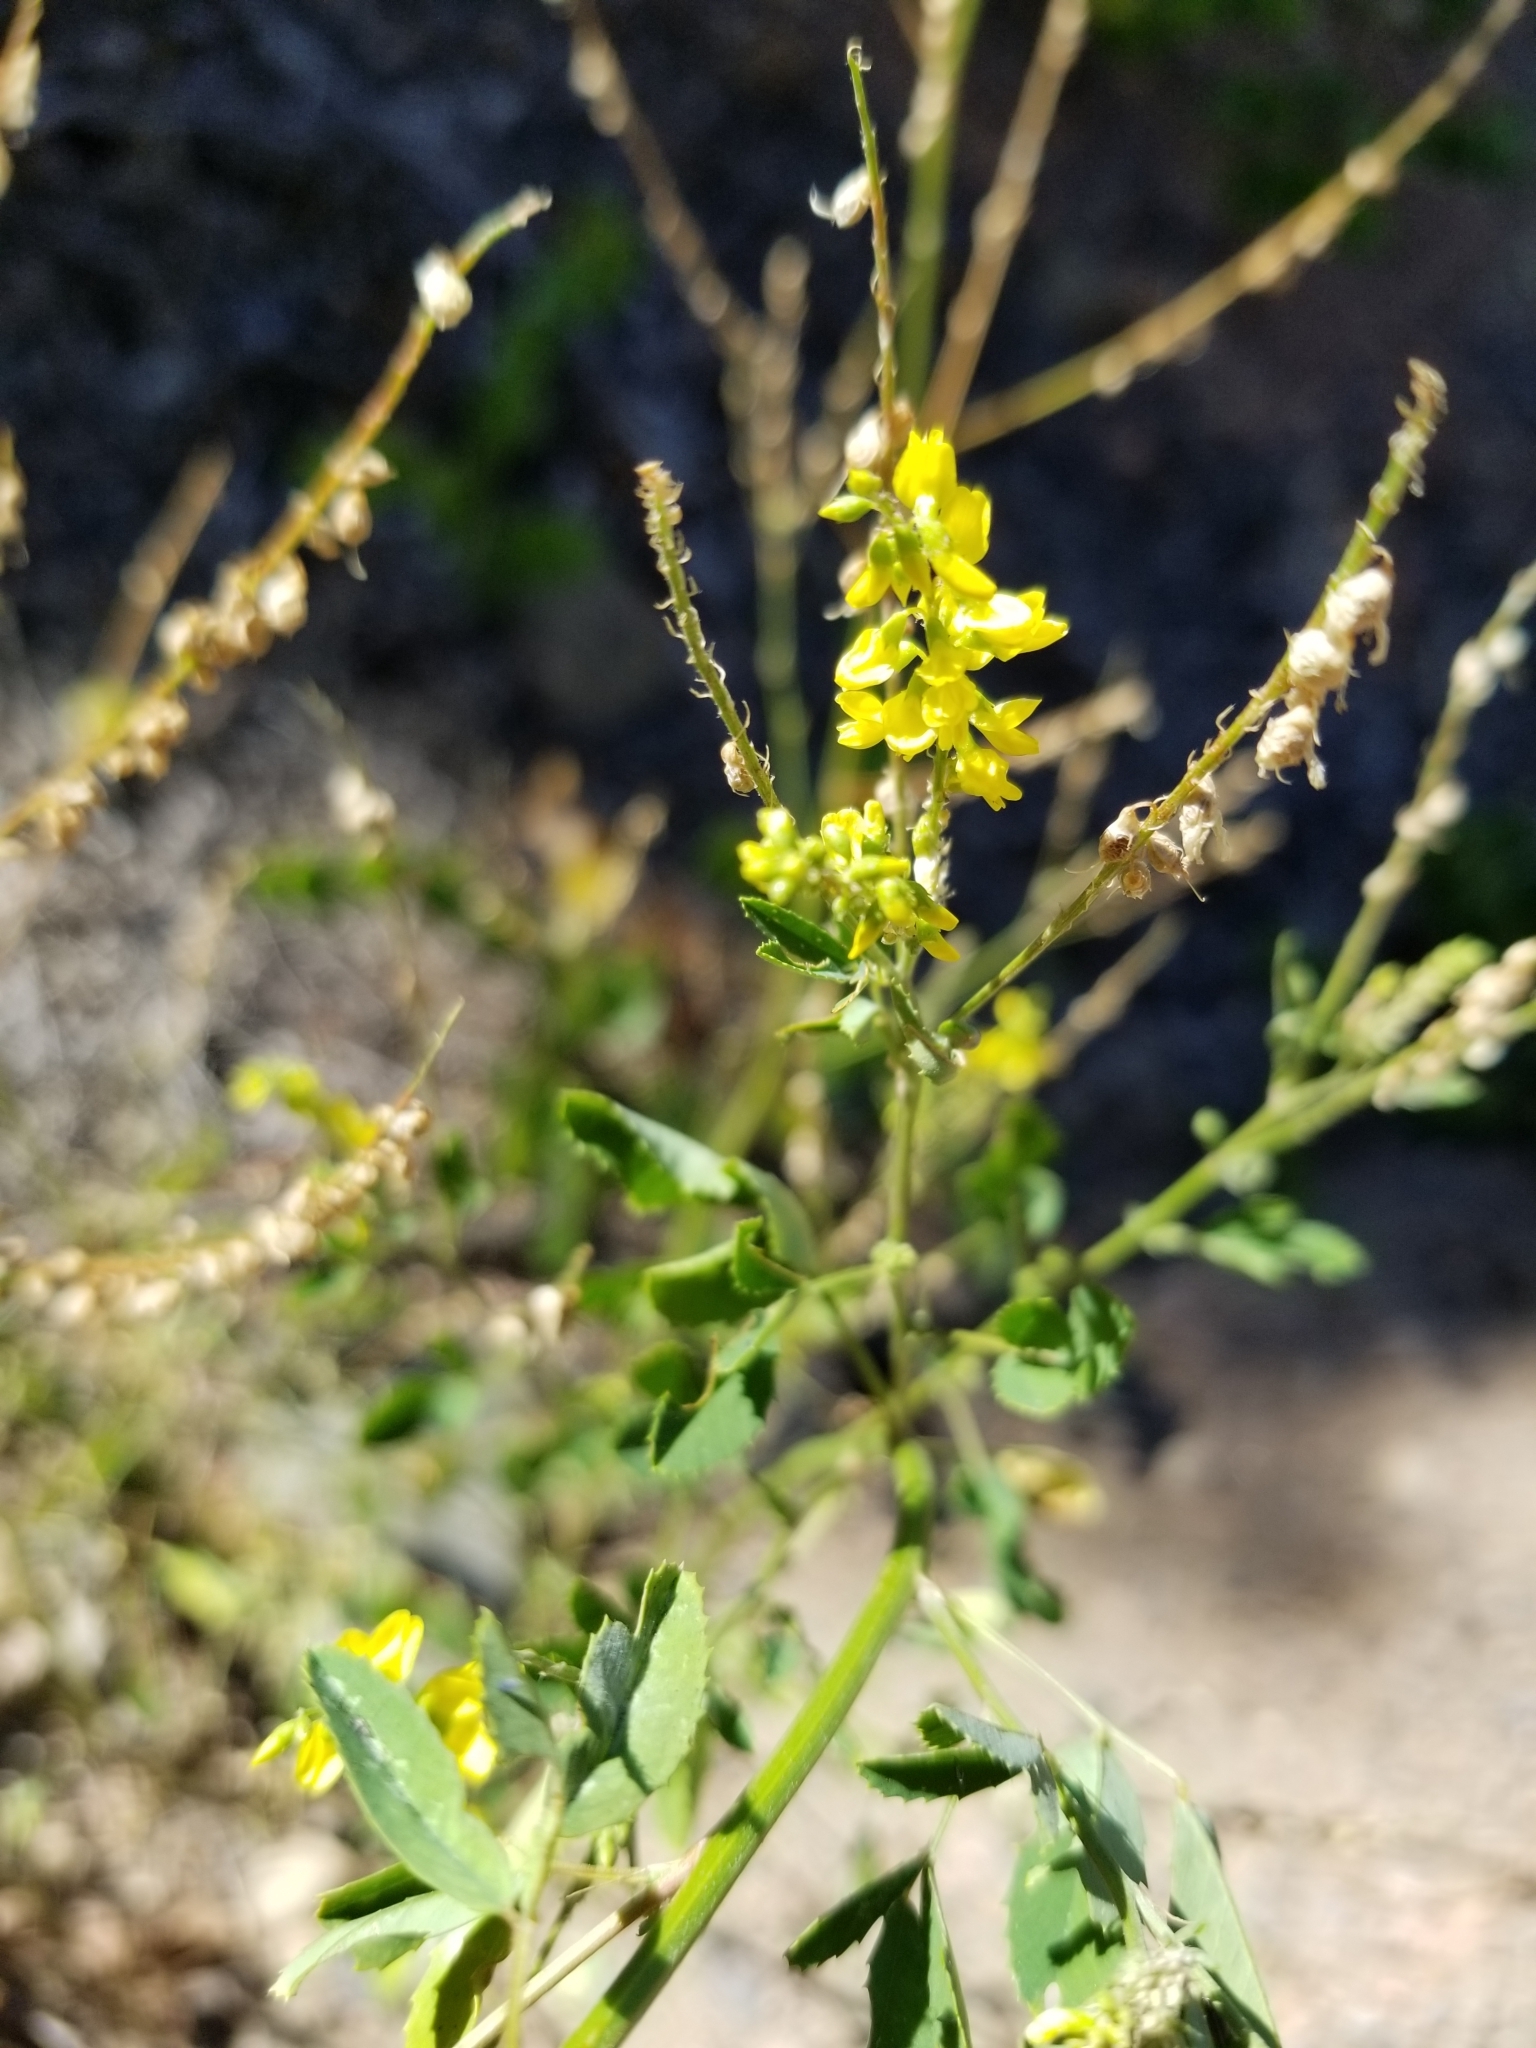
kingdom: Plantae
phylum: Tracheophyta
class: Magnoliopsida
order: Fabales
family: Fabaceae
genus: Melilotus
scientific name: Melilotus officinalis
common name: Sweetclover
